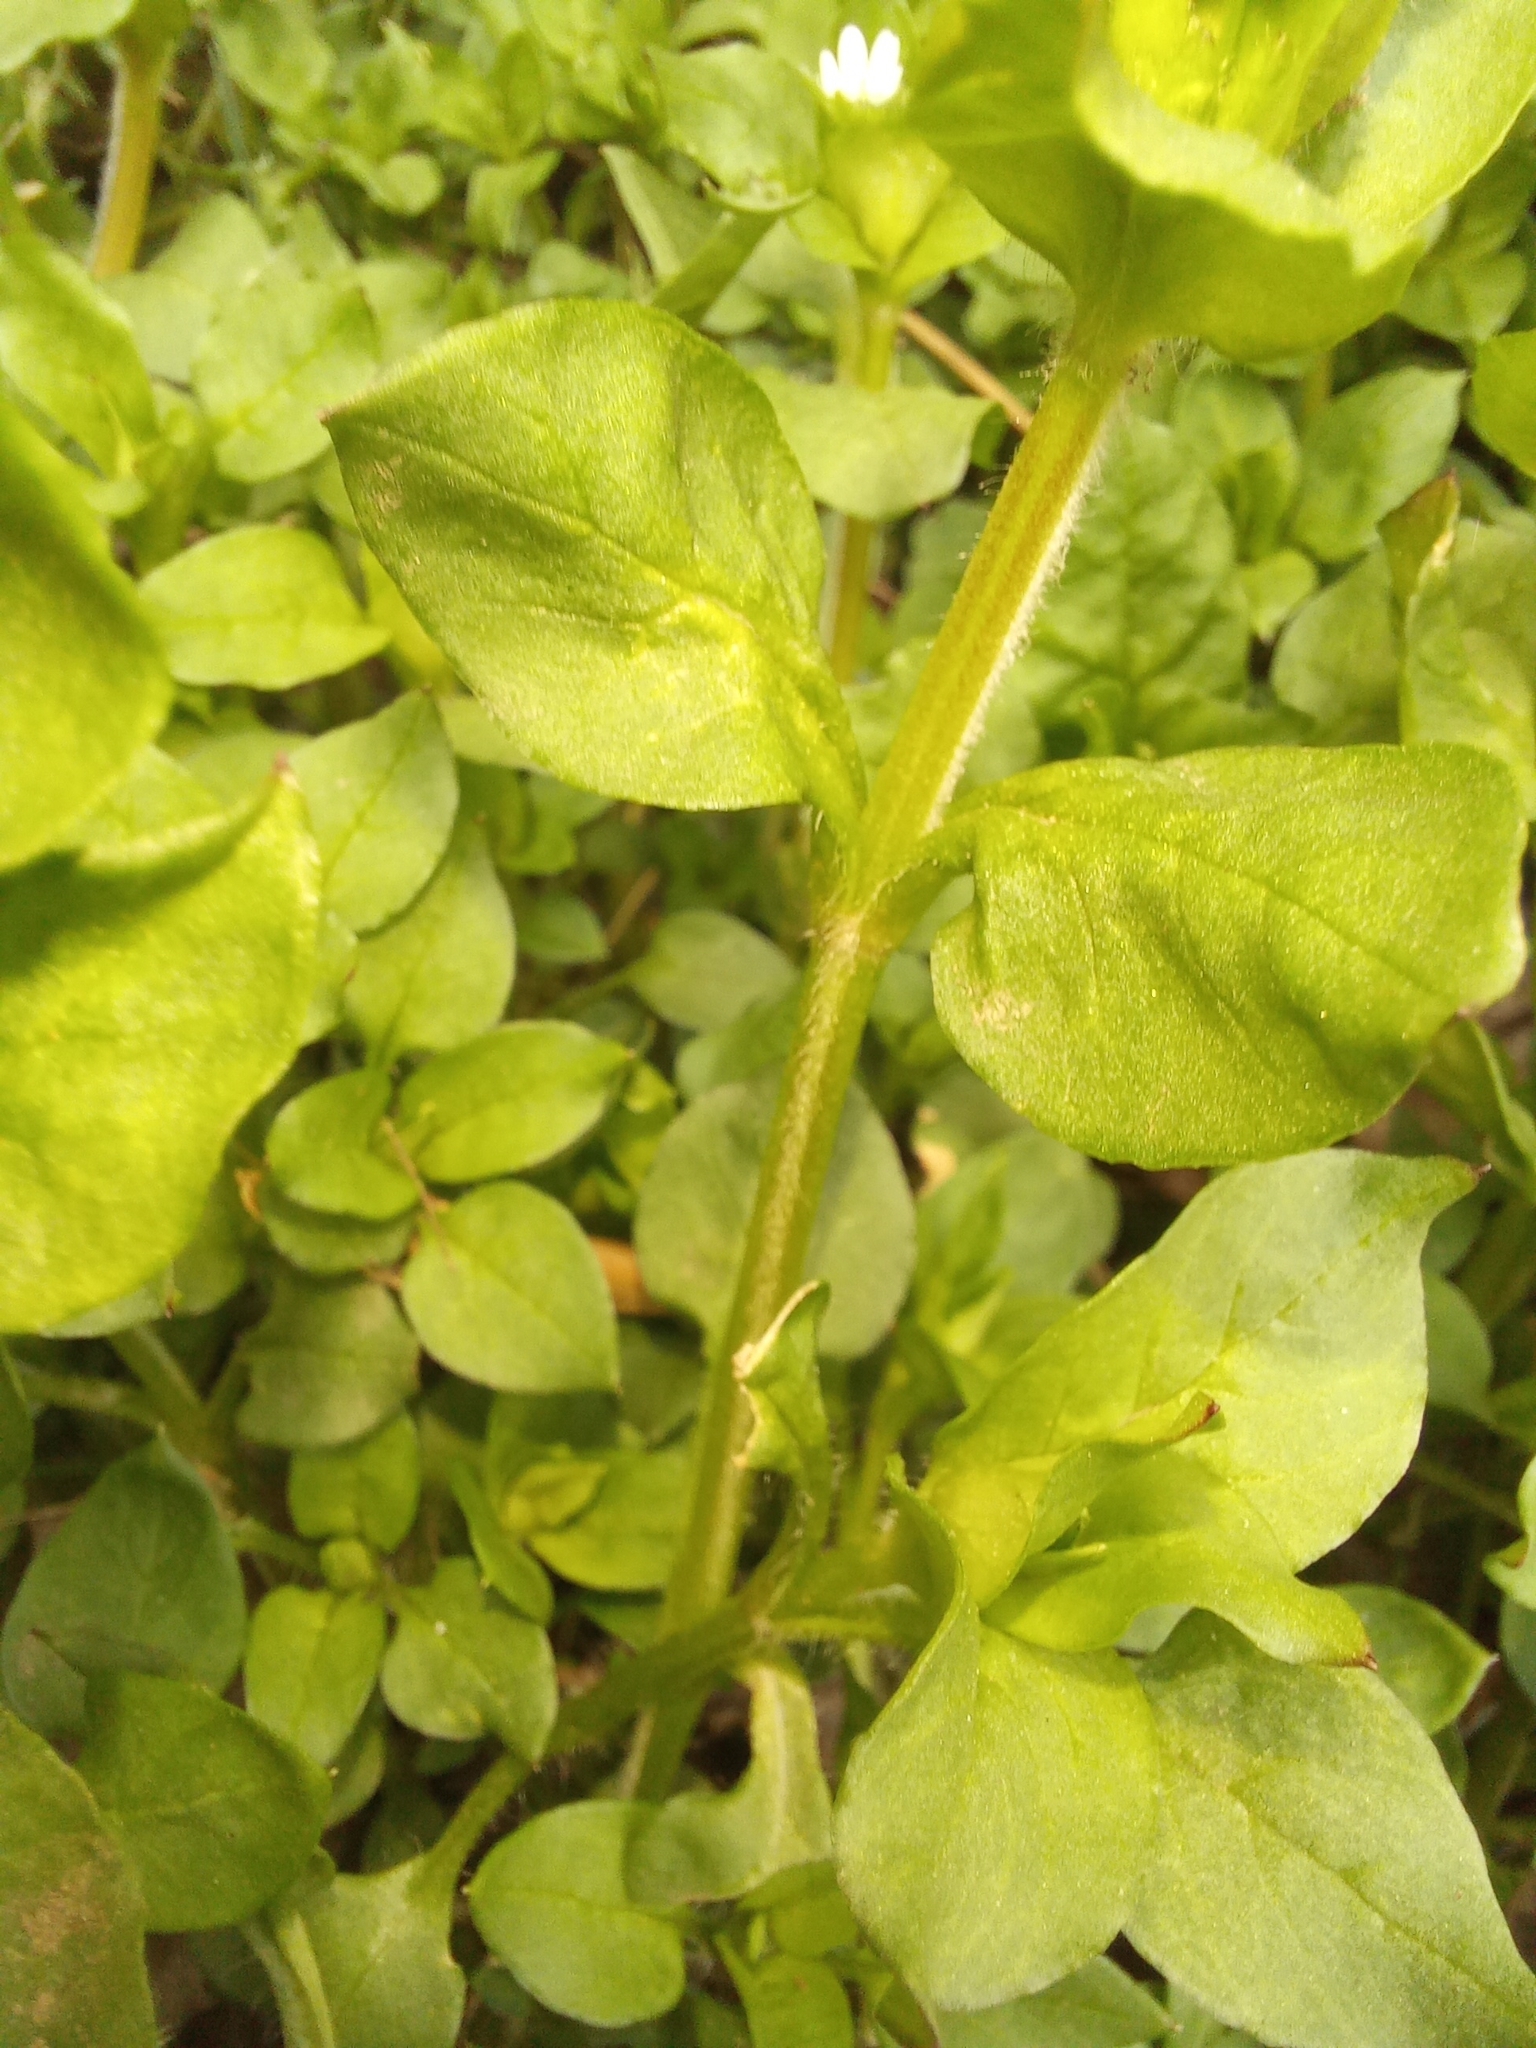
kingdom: Plantae
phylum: Tracheophyta
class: Magnoliopsida
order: Caryophyllales
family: Caryophyllaceae
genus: Stellaria
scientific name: Stellaria media
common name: Common chickweed
